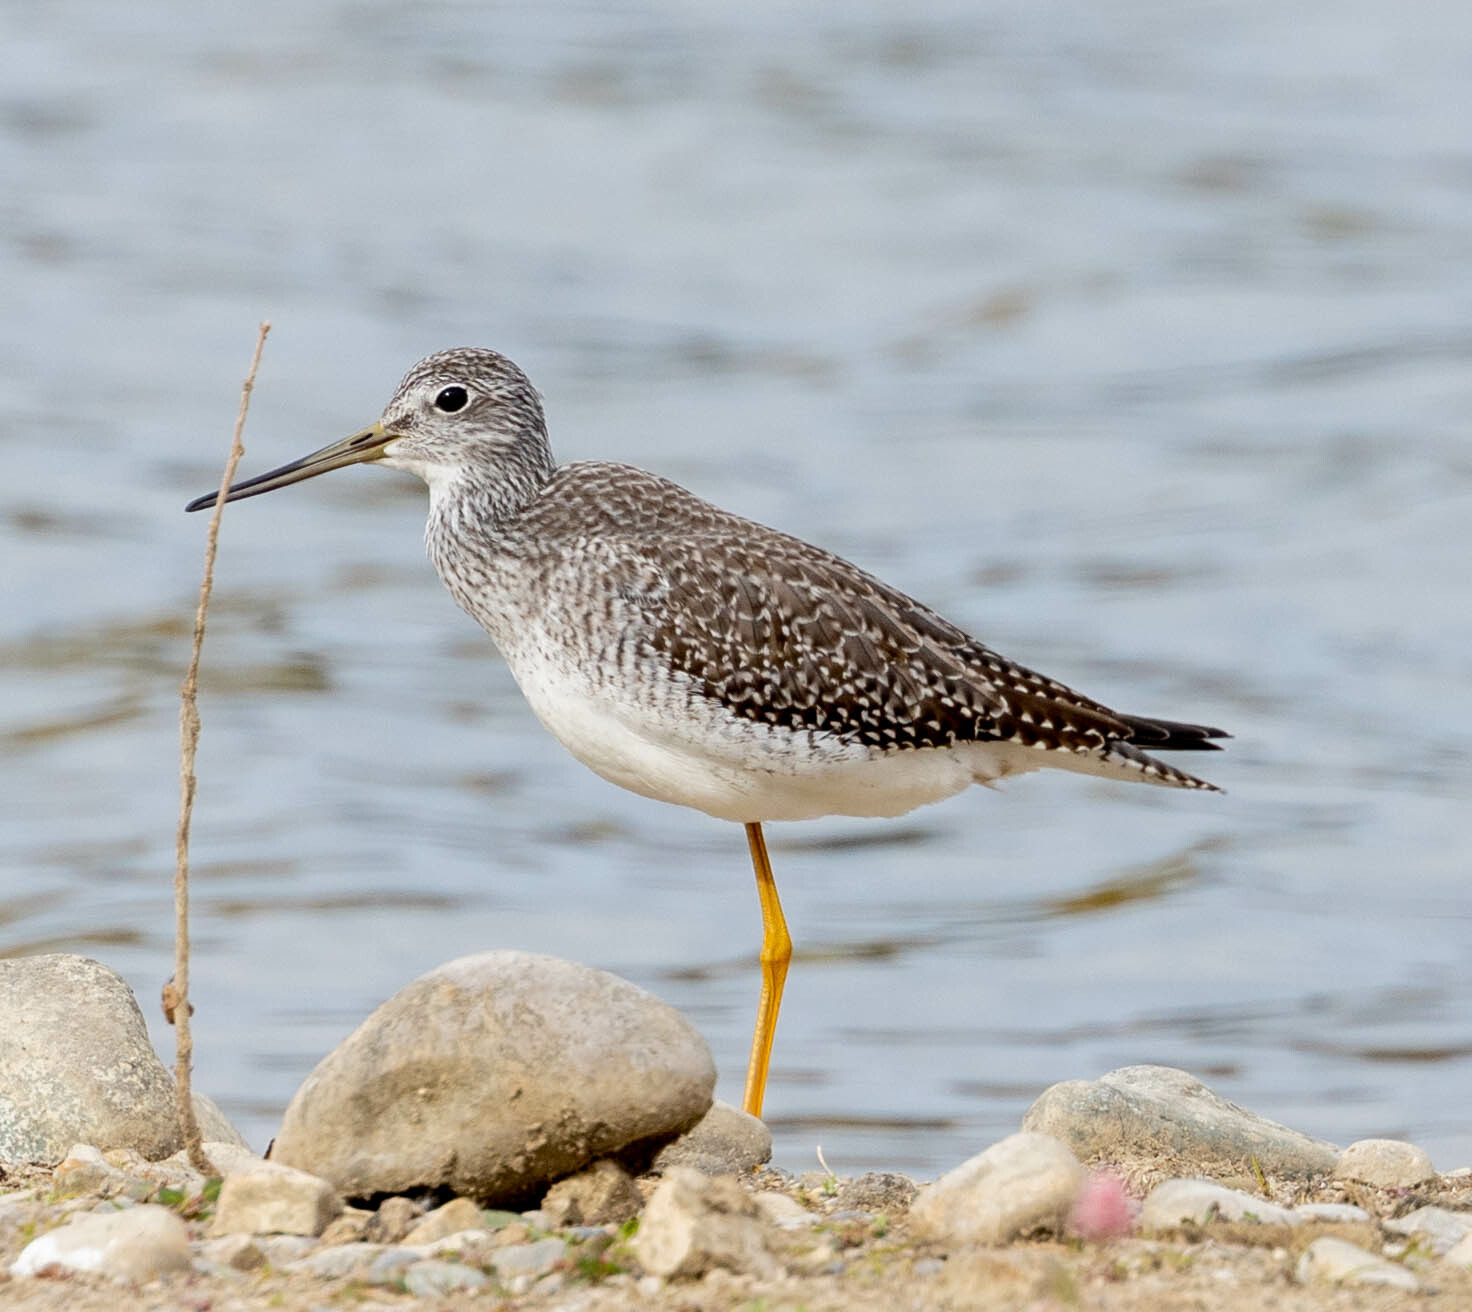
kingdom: Animalia
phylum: Chordata
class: Aves
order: Charadriiformes
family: Scolopacidae
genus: Tringa
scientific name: Tringa melanoleuca
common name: Greater yellowlegs
